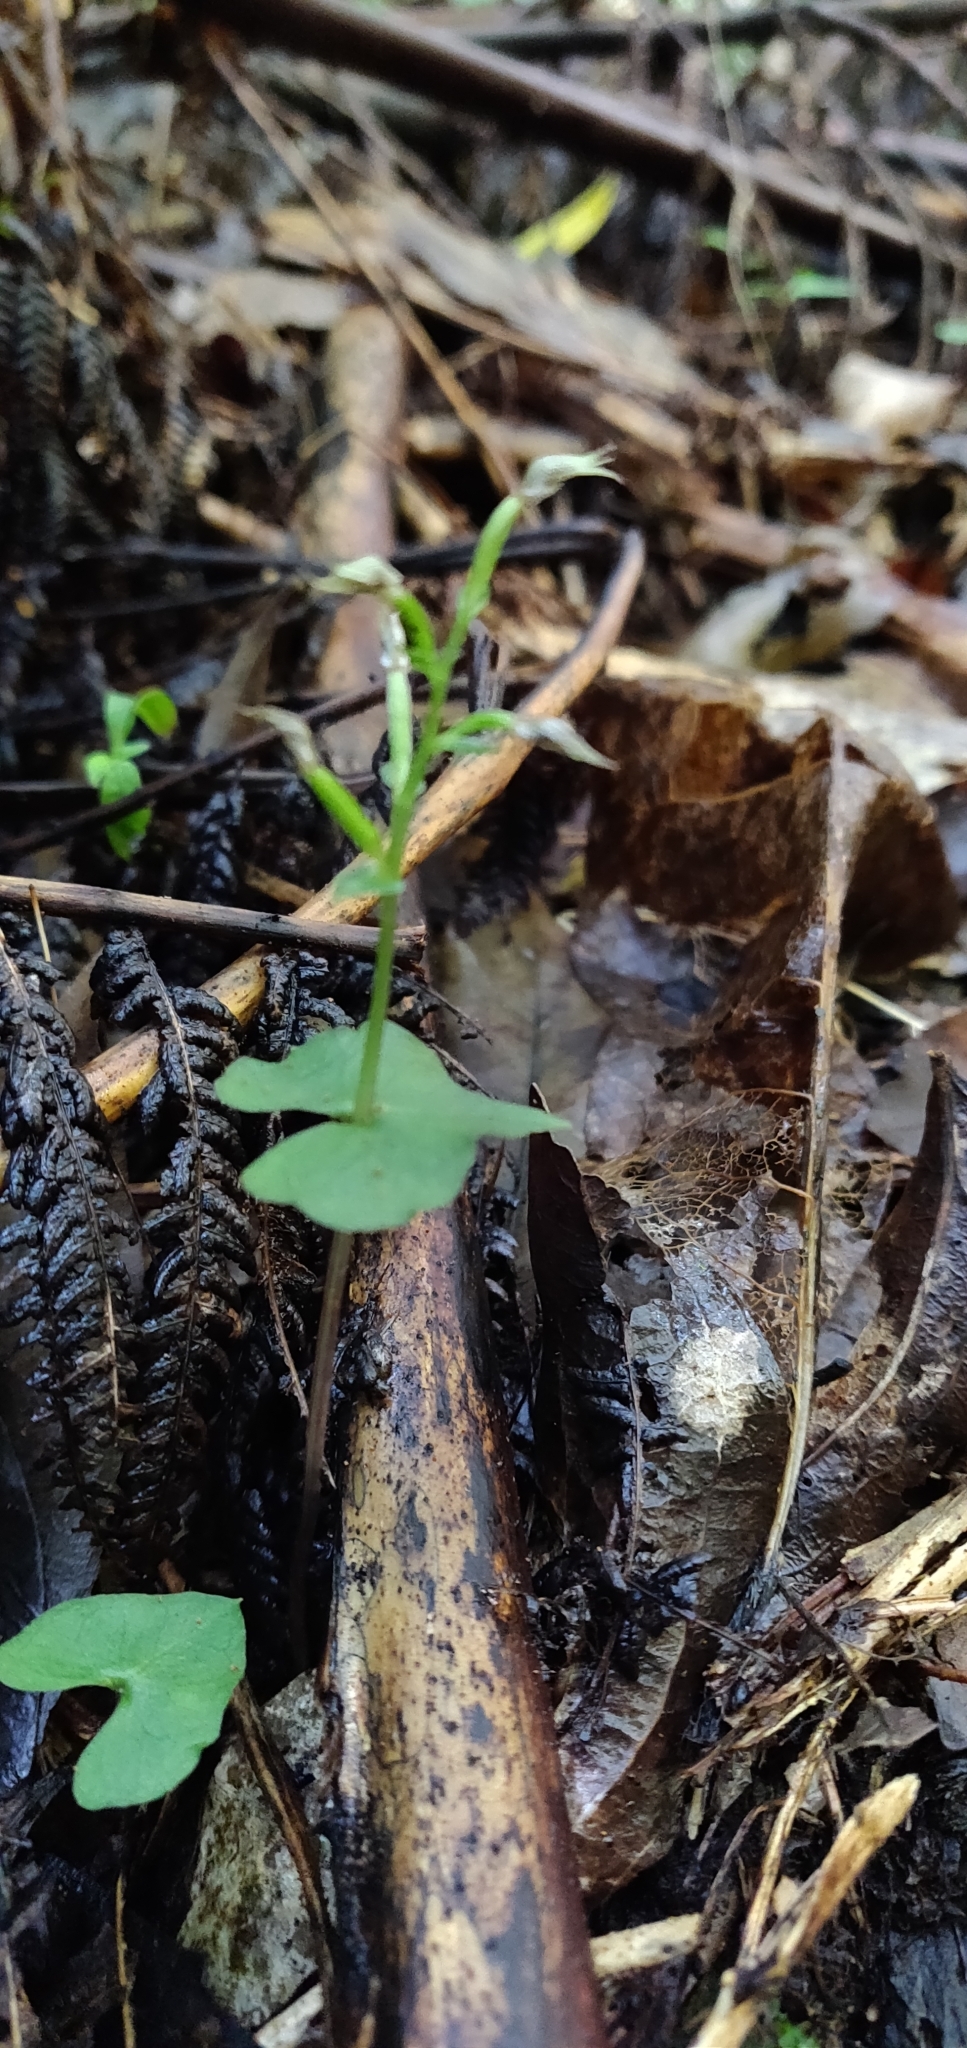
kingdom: Plantae
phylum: Tracheophyta
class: Liliopsida
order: Asparagales
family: Orchidaceae
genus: Acianthus
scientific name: Acianthus sinclairii
